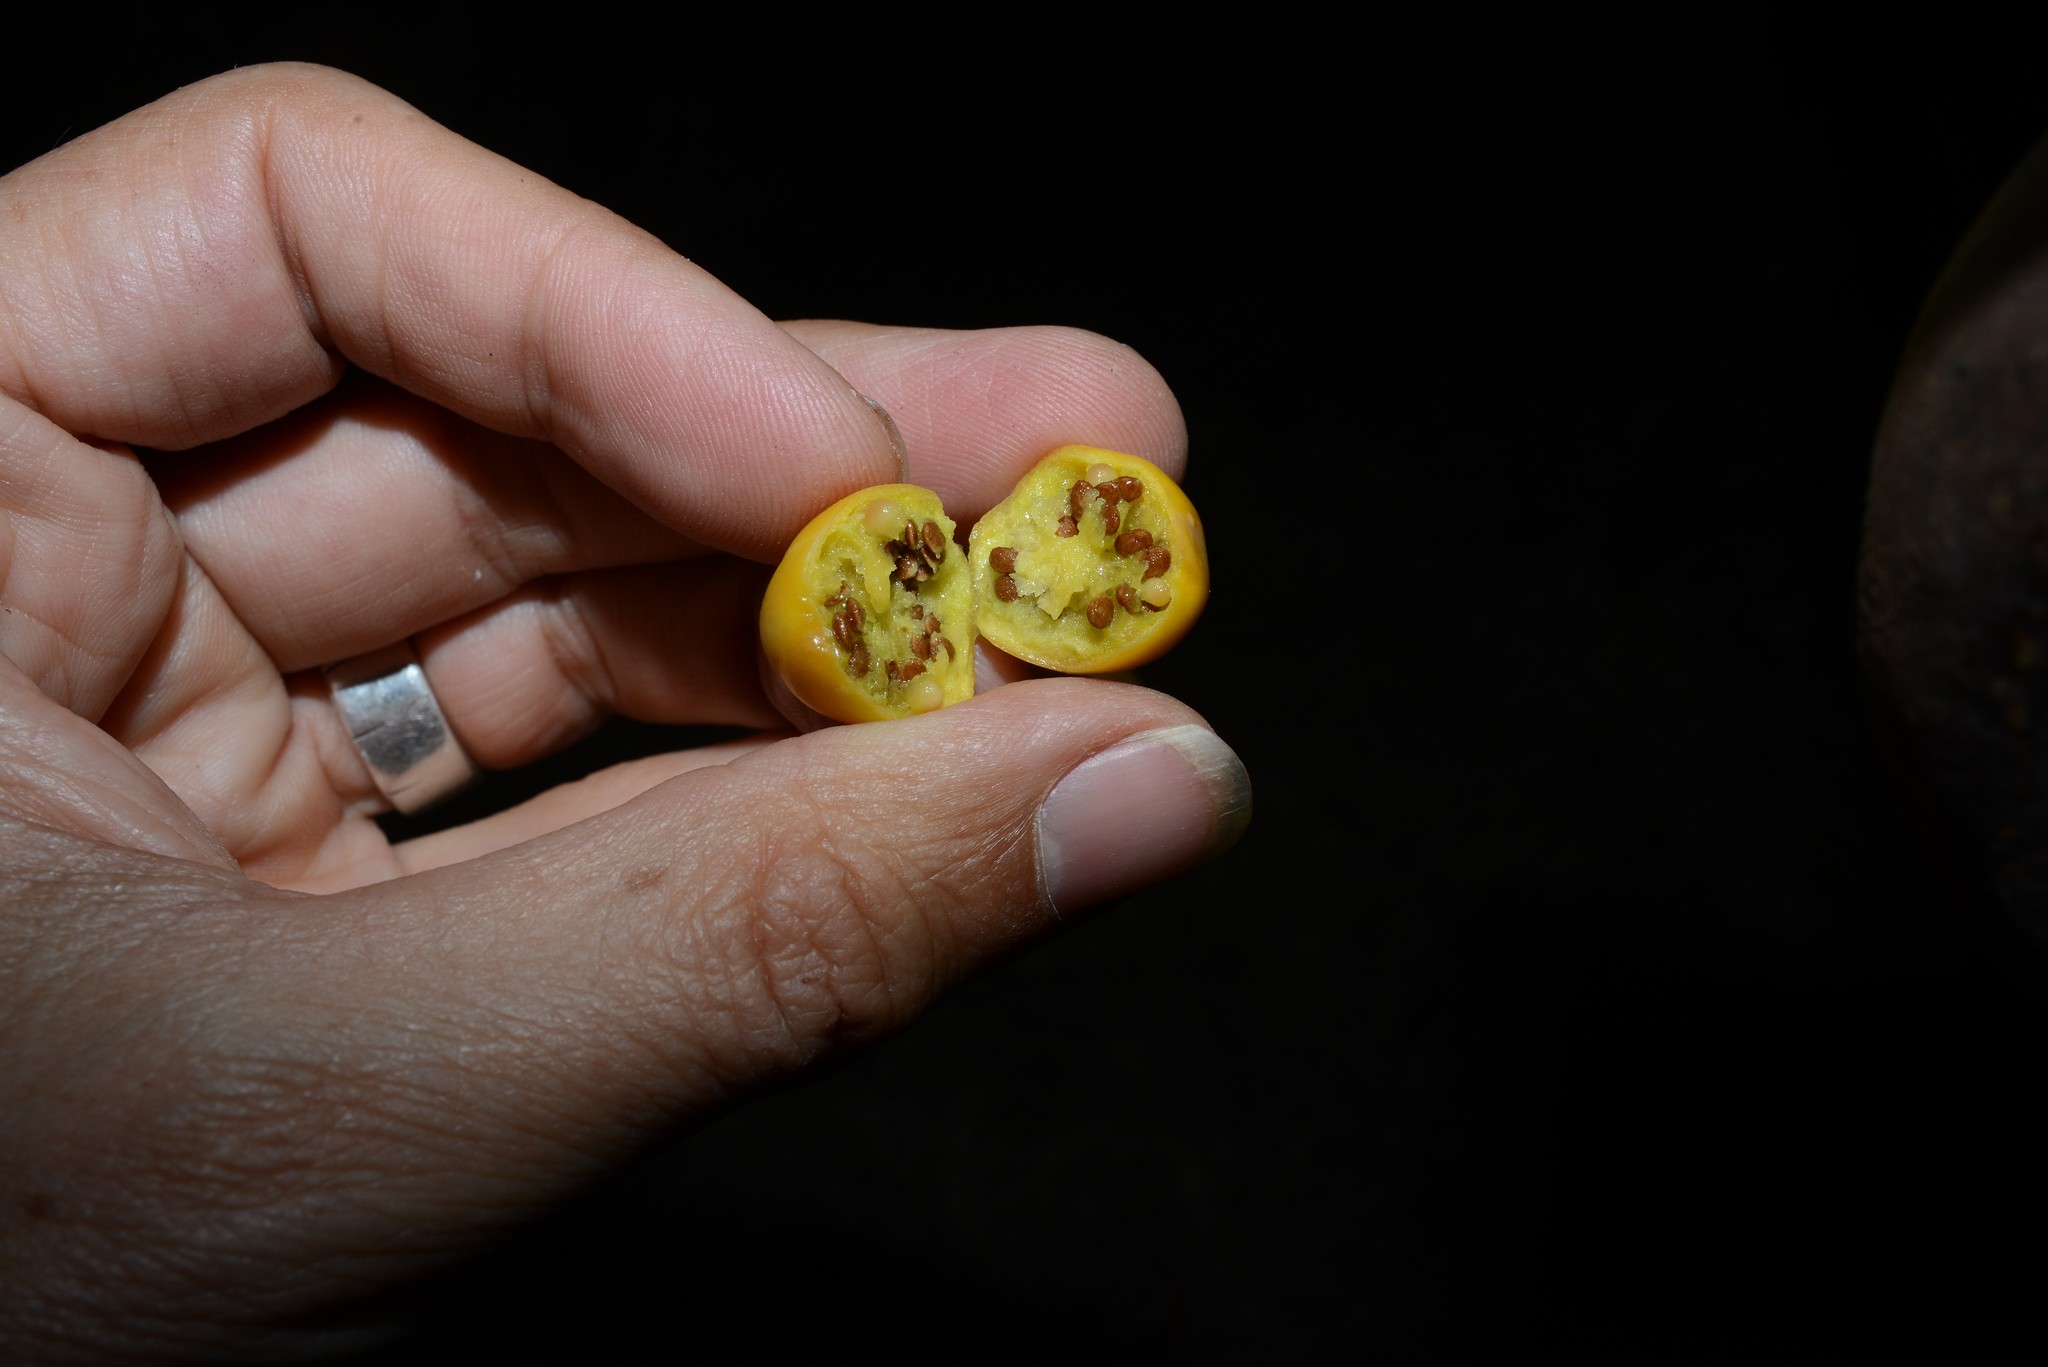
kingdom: Plantae
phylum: Tracheophyta
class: Magnoliopsida
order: Solanales
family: Solanaceae
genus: Solanum
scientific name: Solanum laciniatum
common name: Kangaroo-apple
